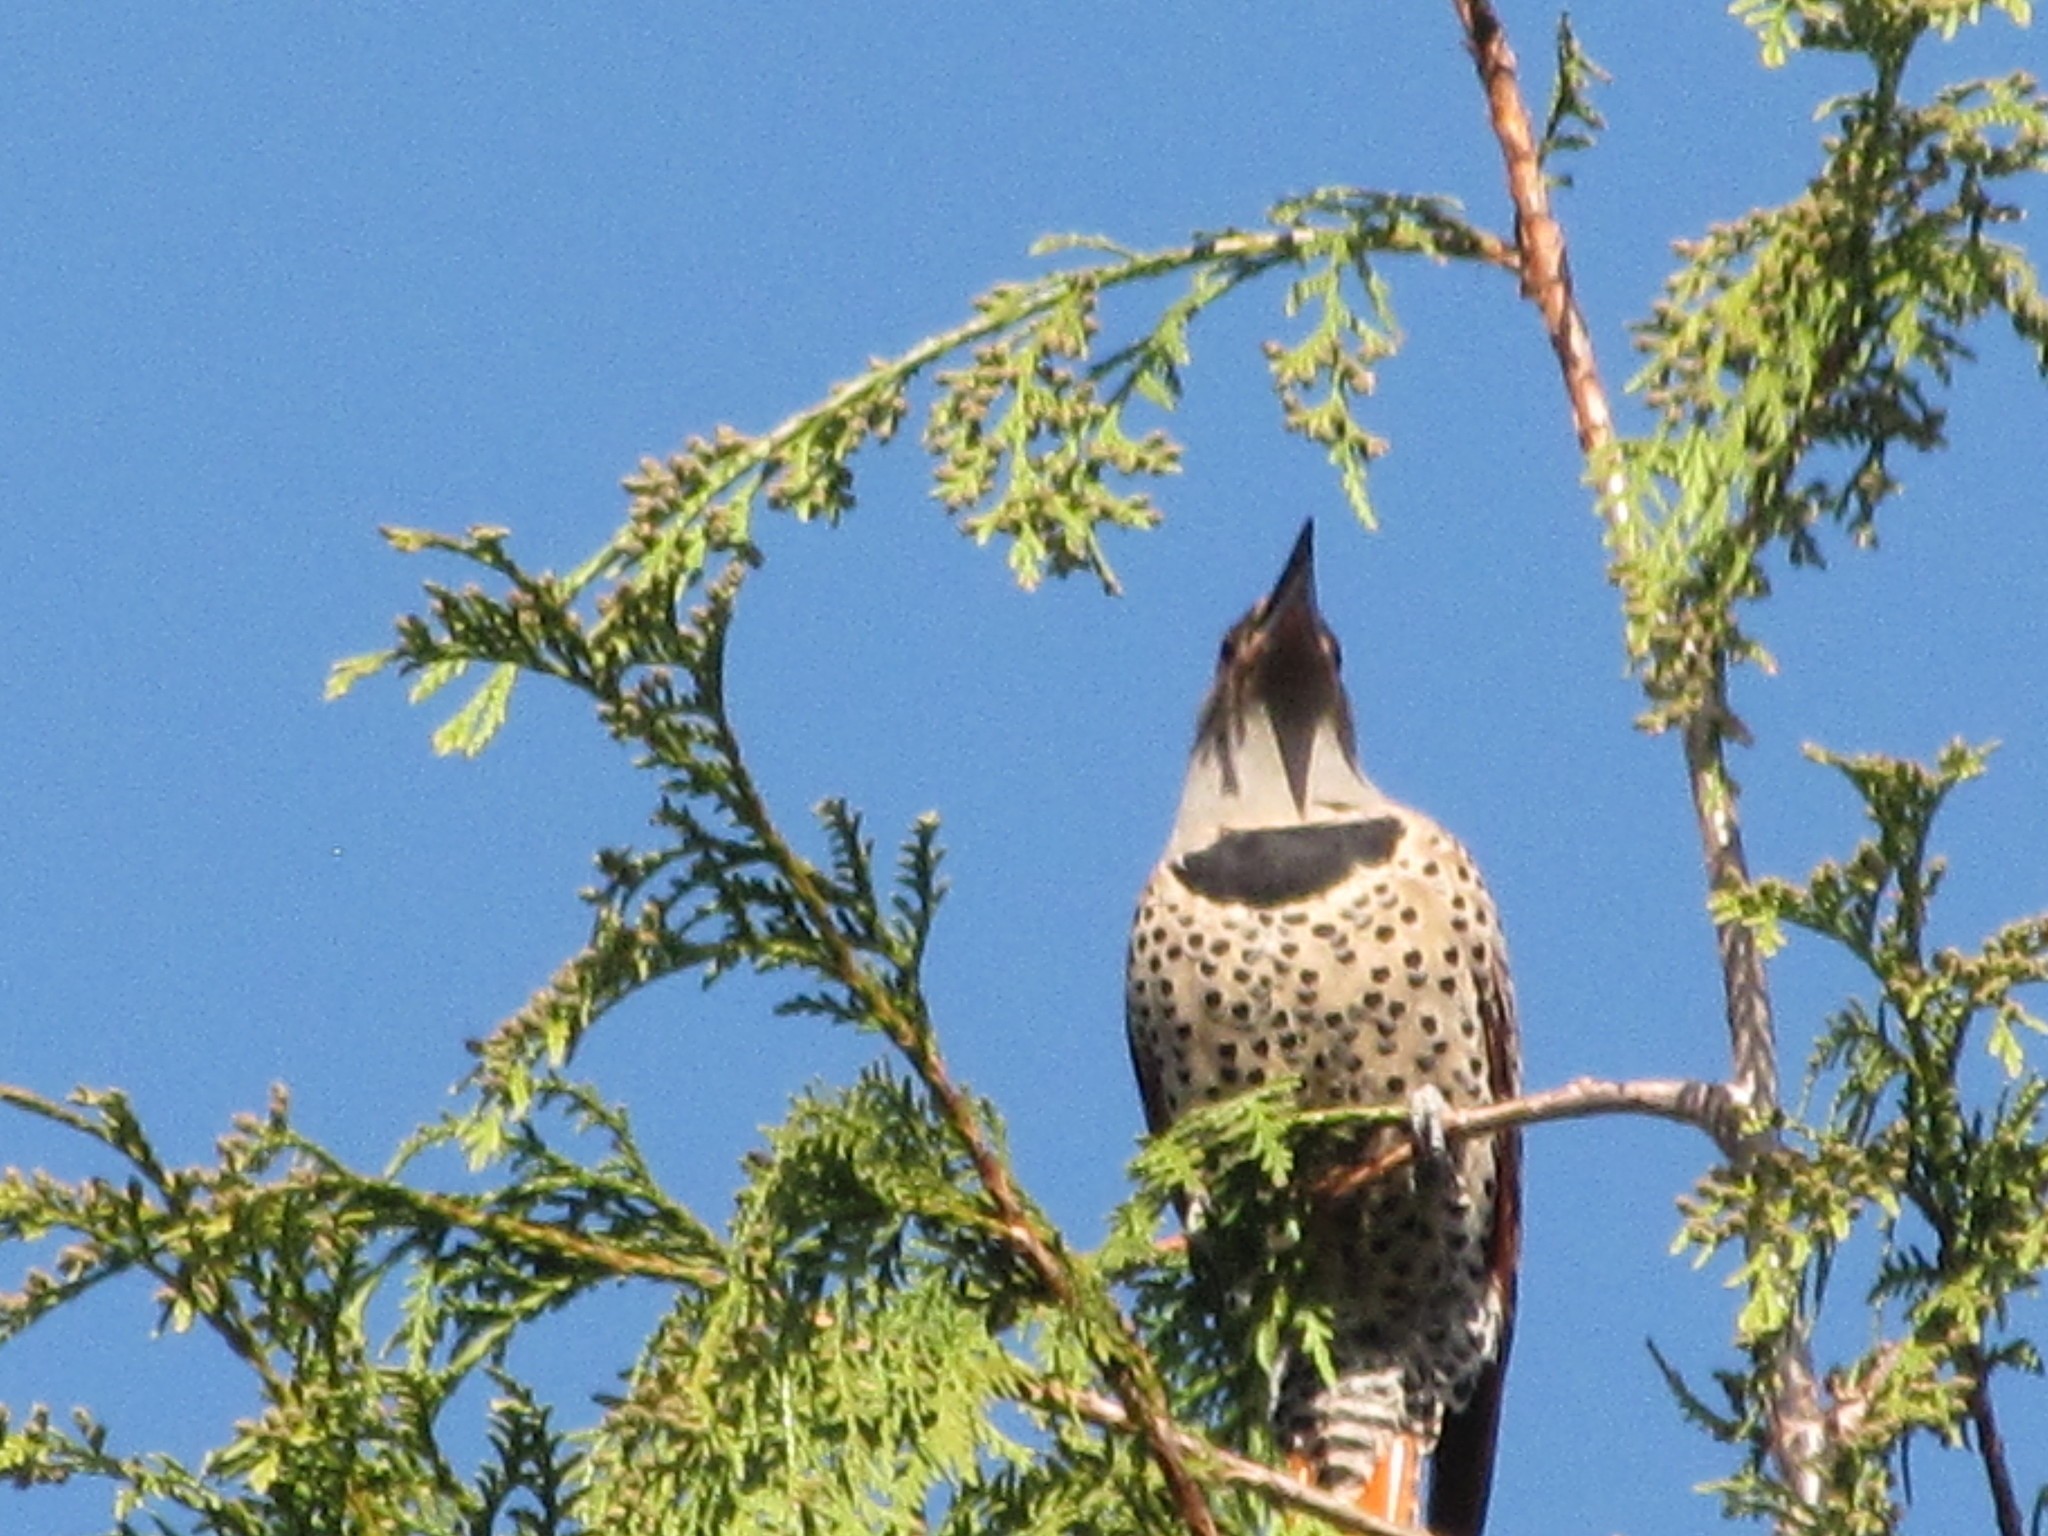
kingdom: Animalia
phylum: Chordata
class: Aves
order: Piciformes
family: Picidae
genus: Colaptes
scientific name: Colaptes auratus
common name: Northern flicker
